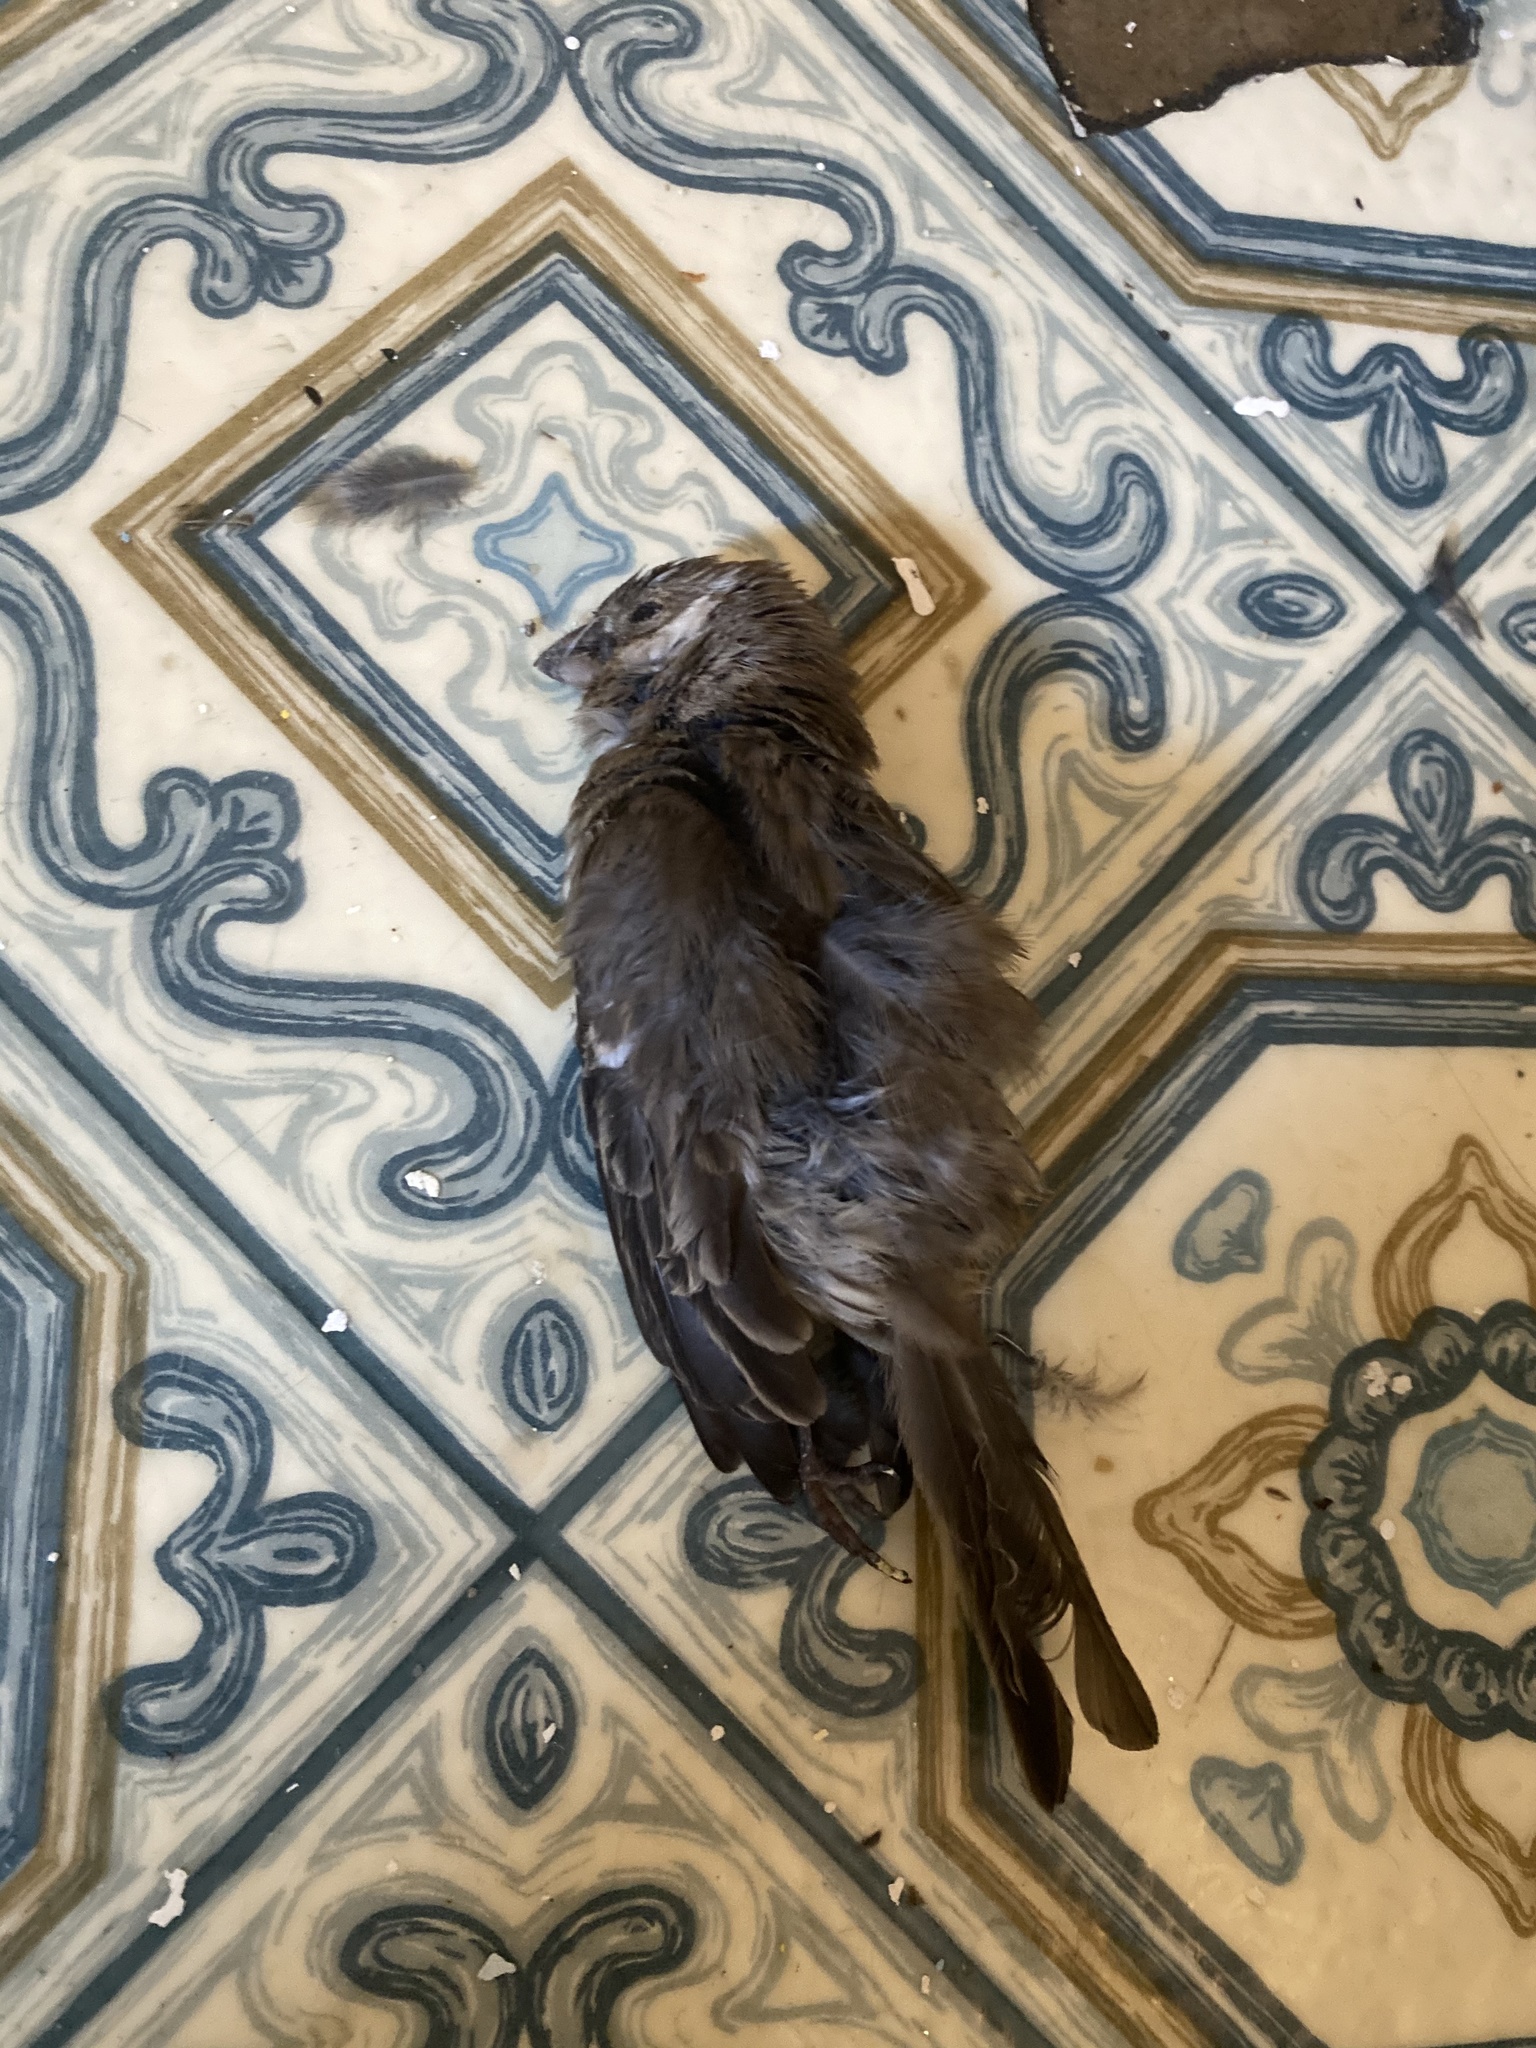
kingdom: Animalia
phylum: Chordata
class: Aves
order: Passeriformes
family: Fringillidae
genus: Haemorhous
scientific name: Haemorhous mexicanus
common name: House finch
